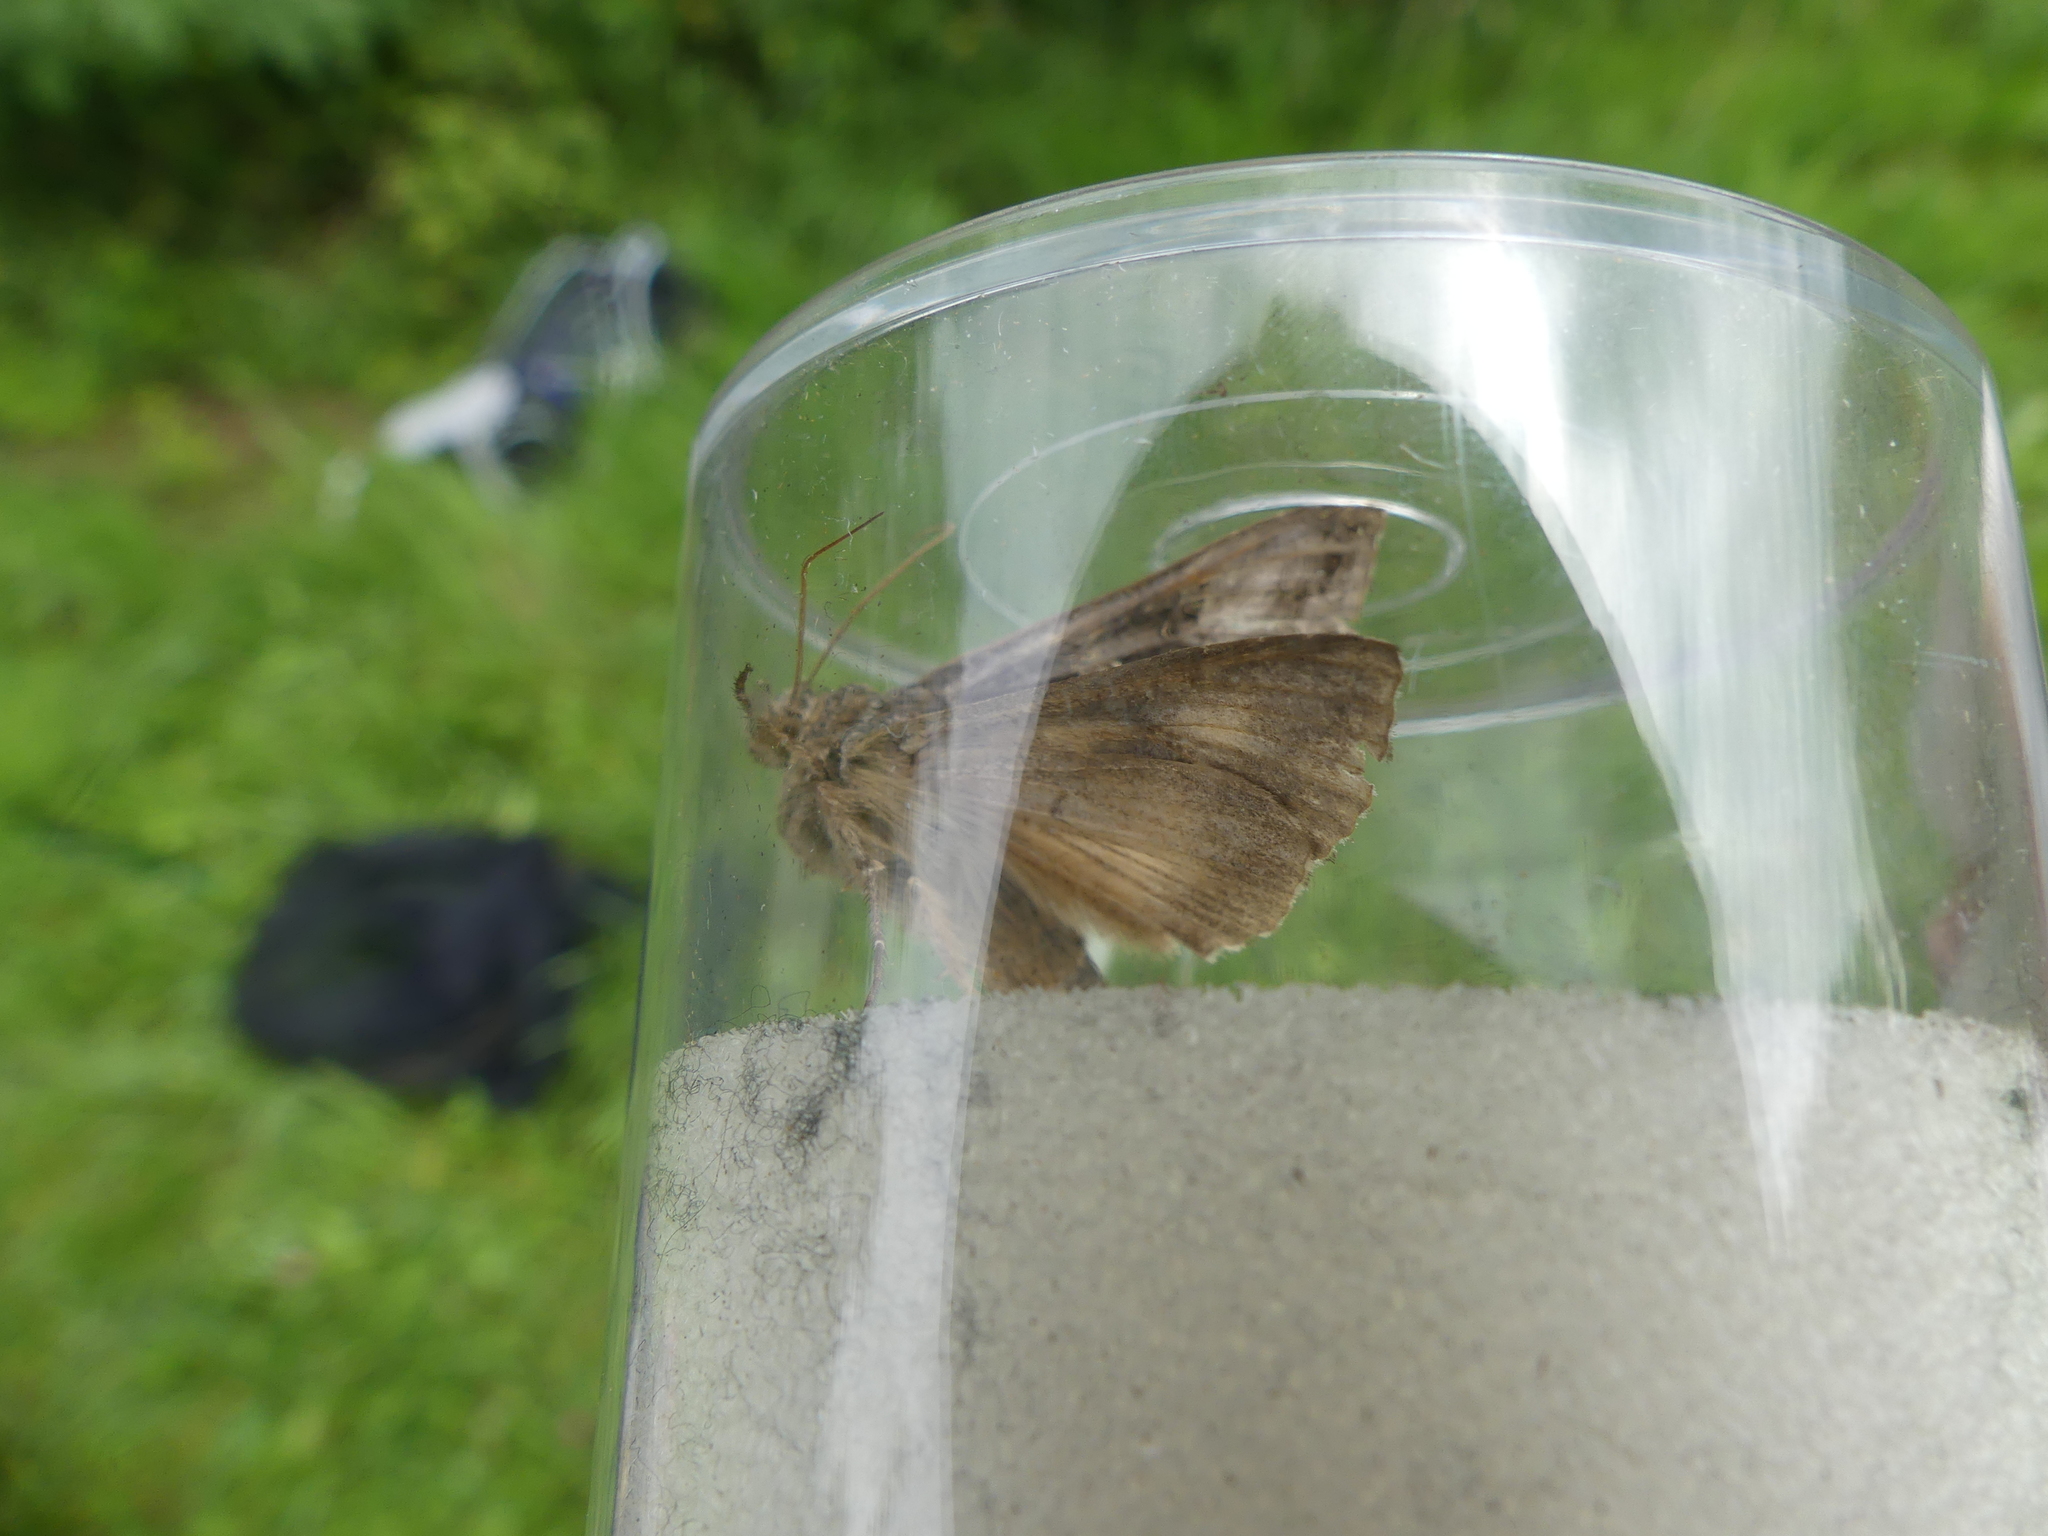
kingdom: Animalia
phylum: Arthropoda
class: Insecta
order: Lepidoptera
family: Noctuidae
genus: Autographa
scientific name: Autographa gamma
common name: Silver y
